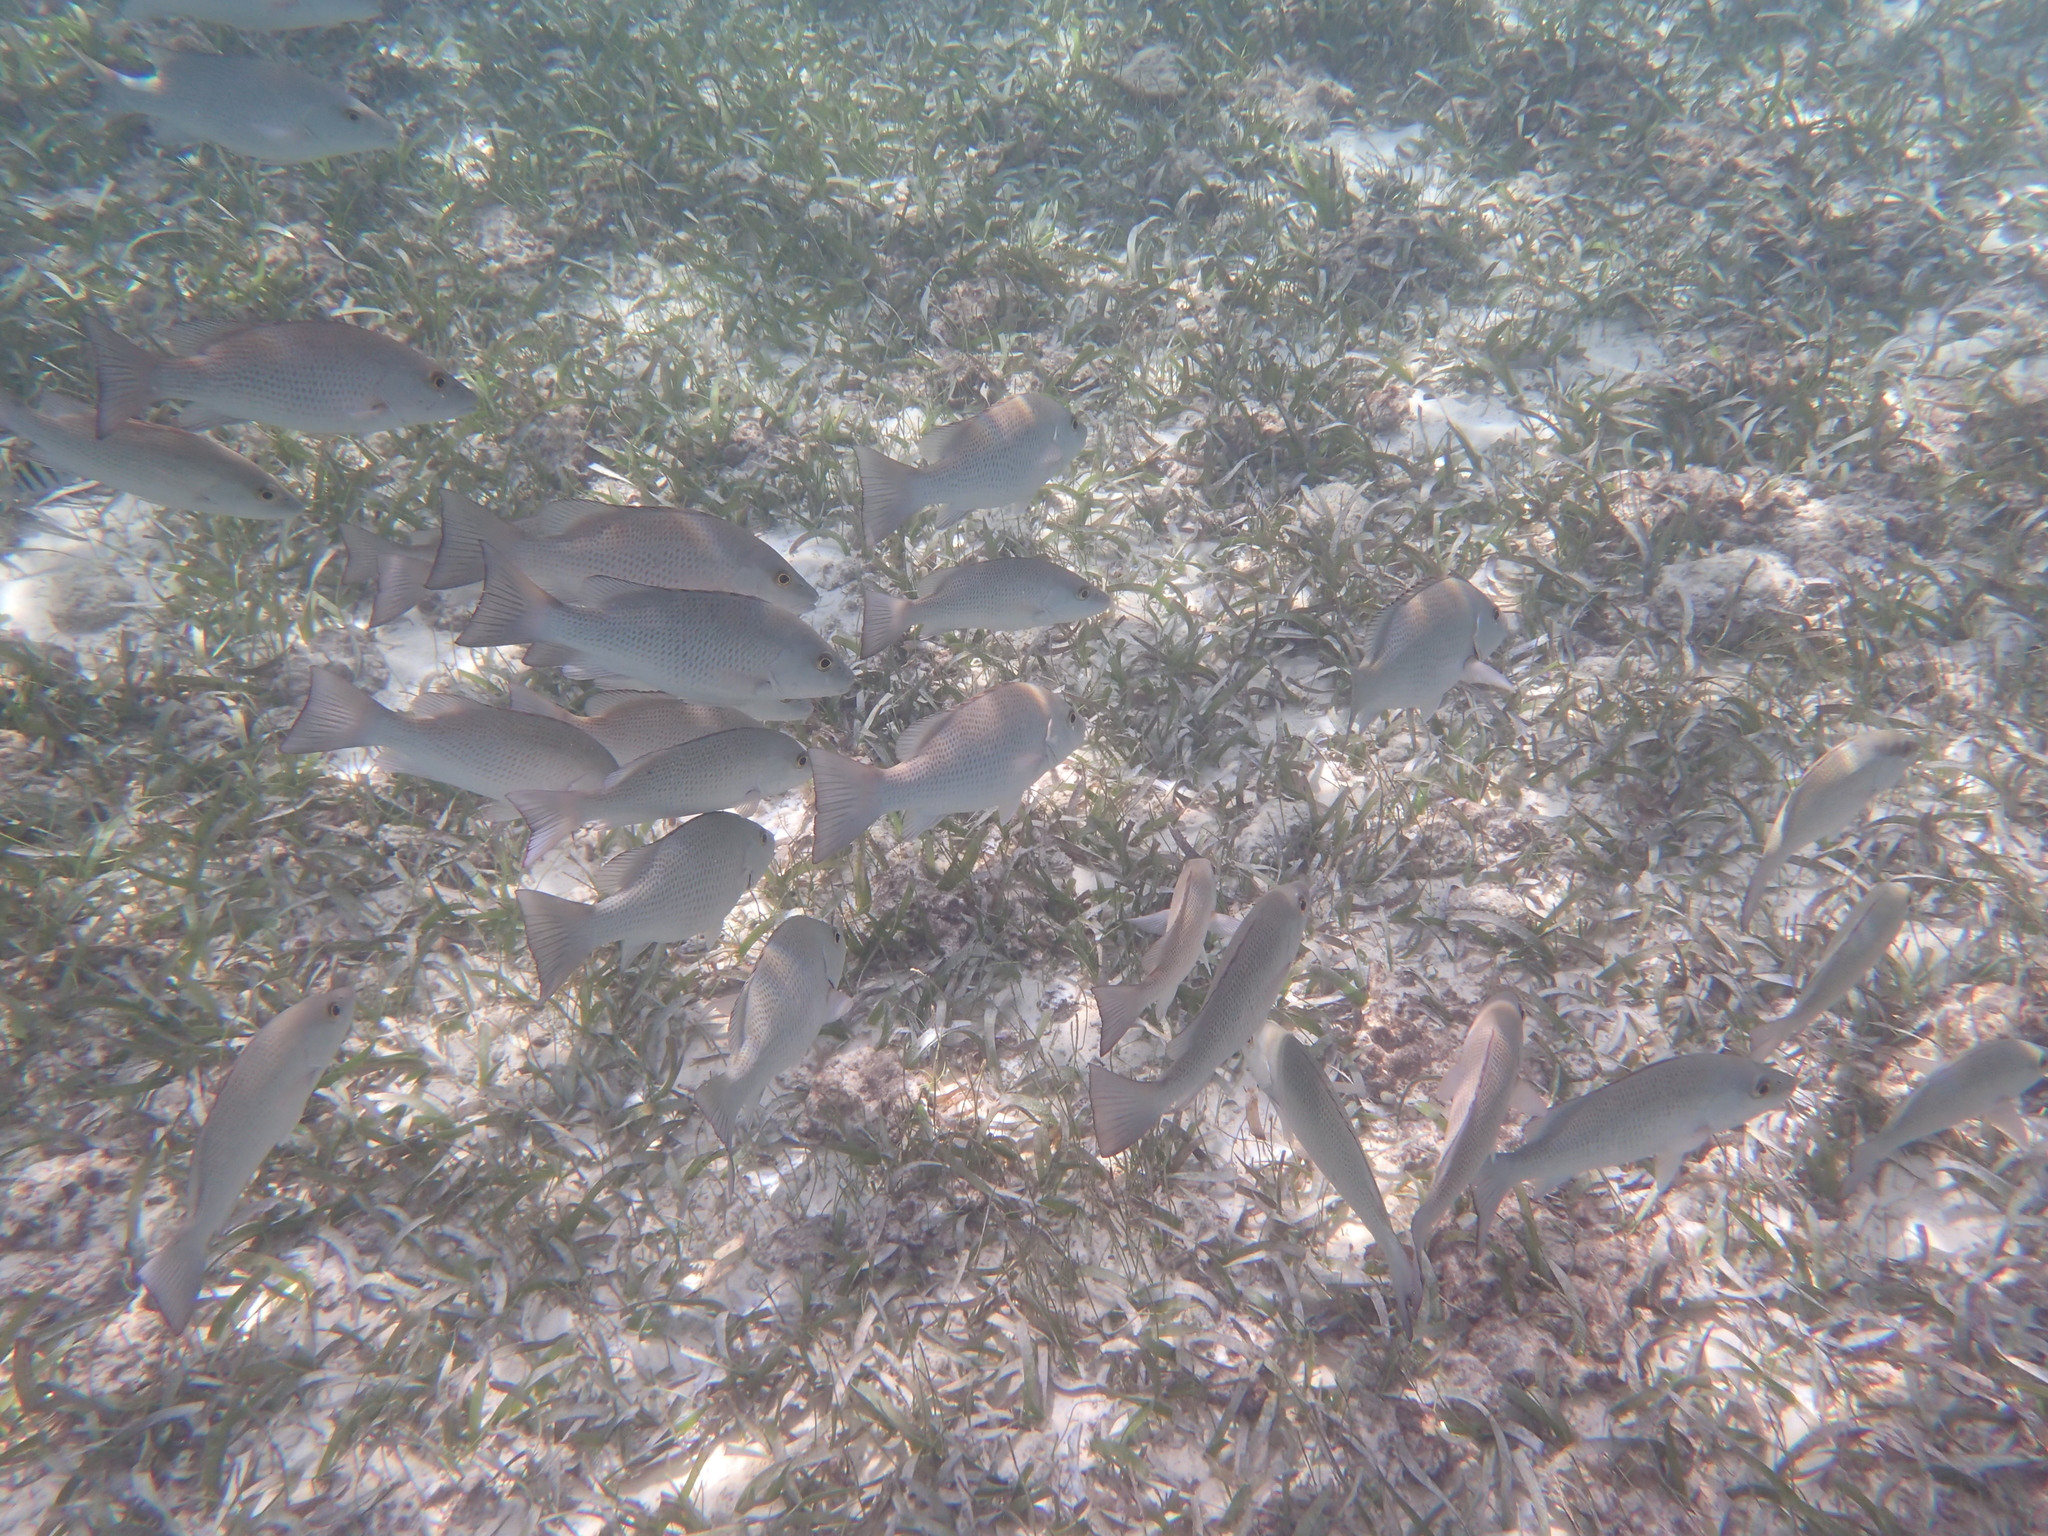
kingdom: Animalia
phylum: Chordata
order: Perciformes
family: Lutjanidae
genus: Lutjanus
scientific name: Lutjanus griseus
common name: Gray snapper
